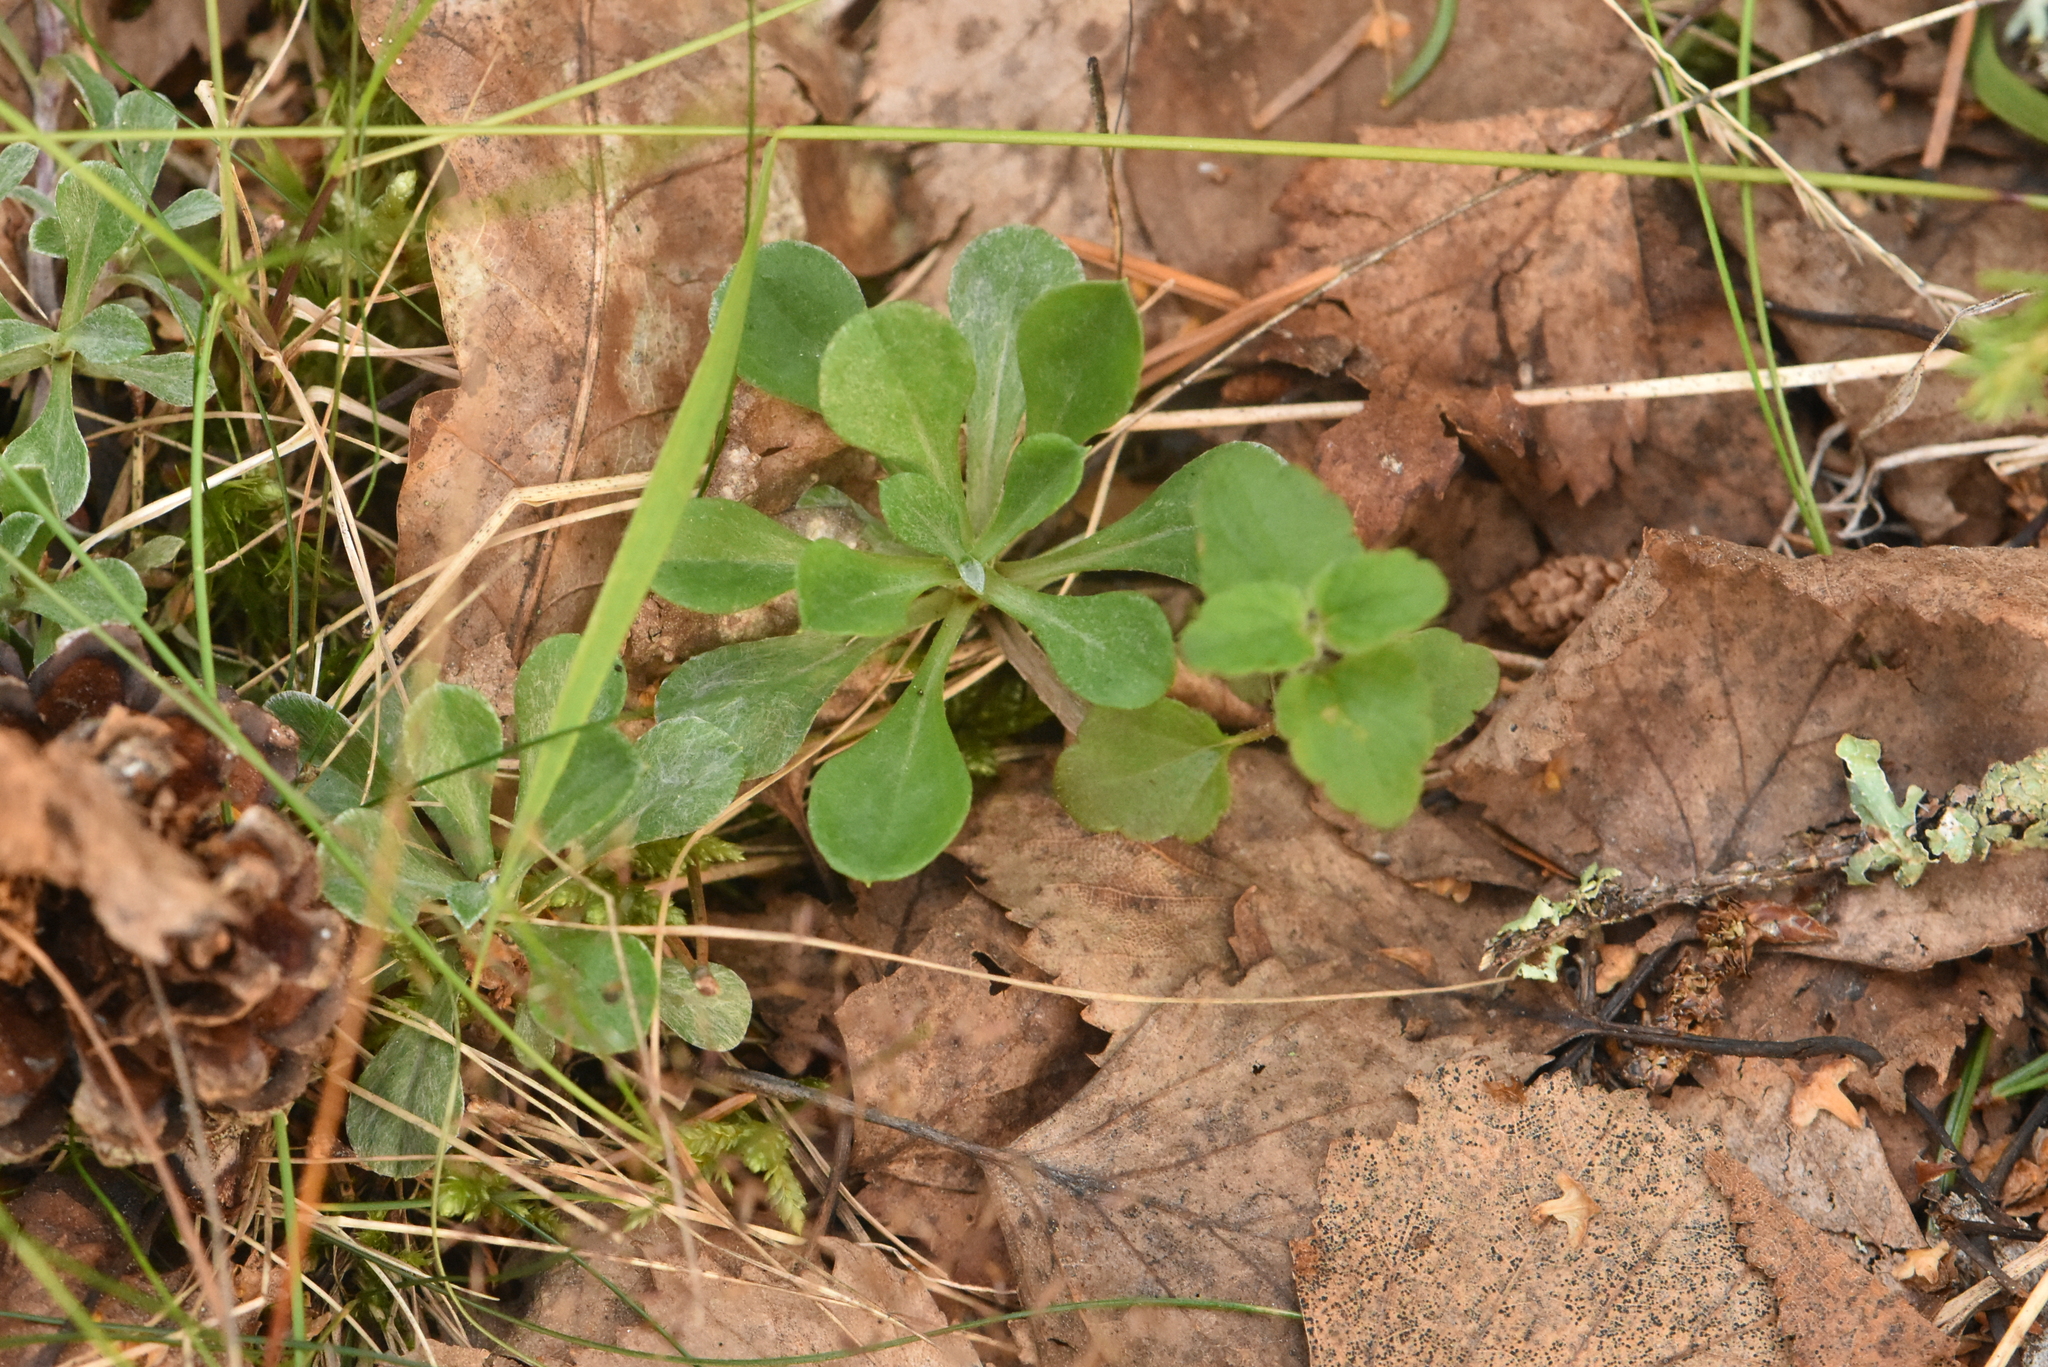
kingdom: Plantae
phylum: Tracheophyta
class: Magnoliopsida
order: Asterales
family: Asteraceae
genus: Antennaria
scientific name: Antennaria dioica
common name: Mountain everlasting
